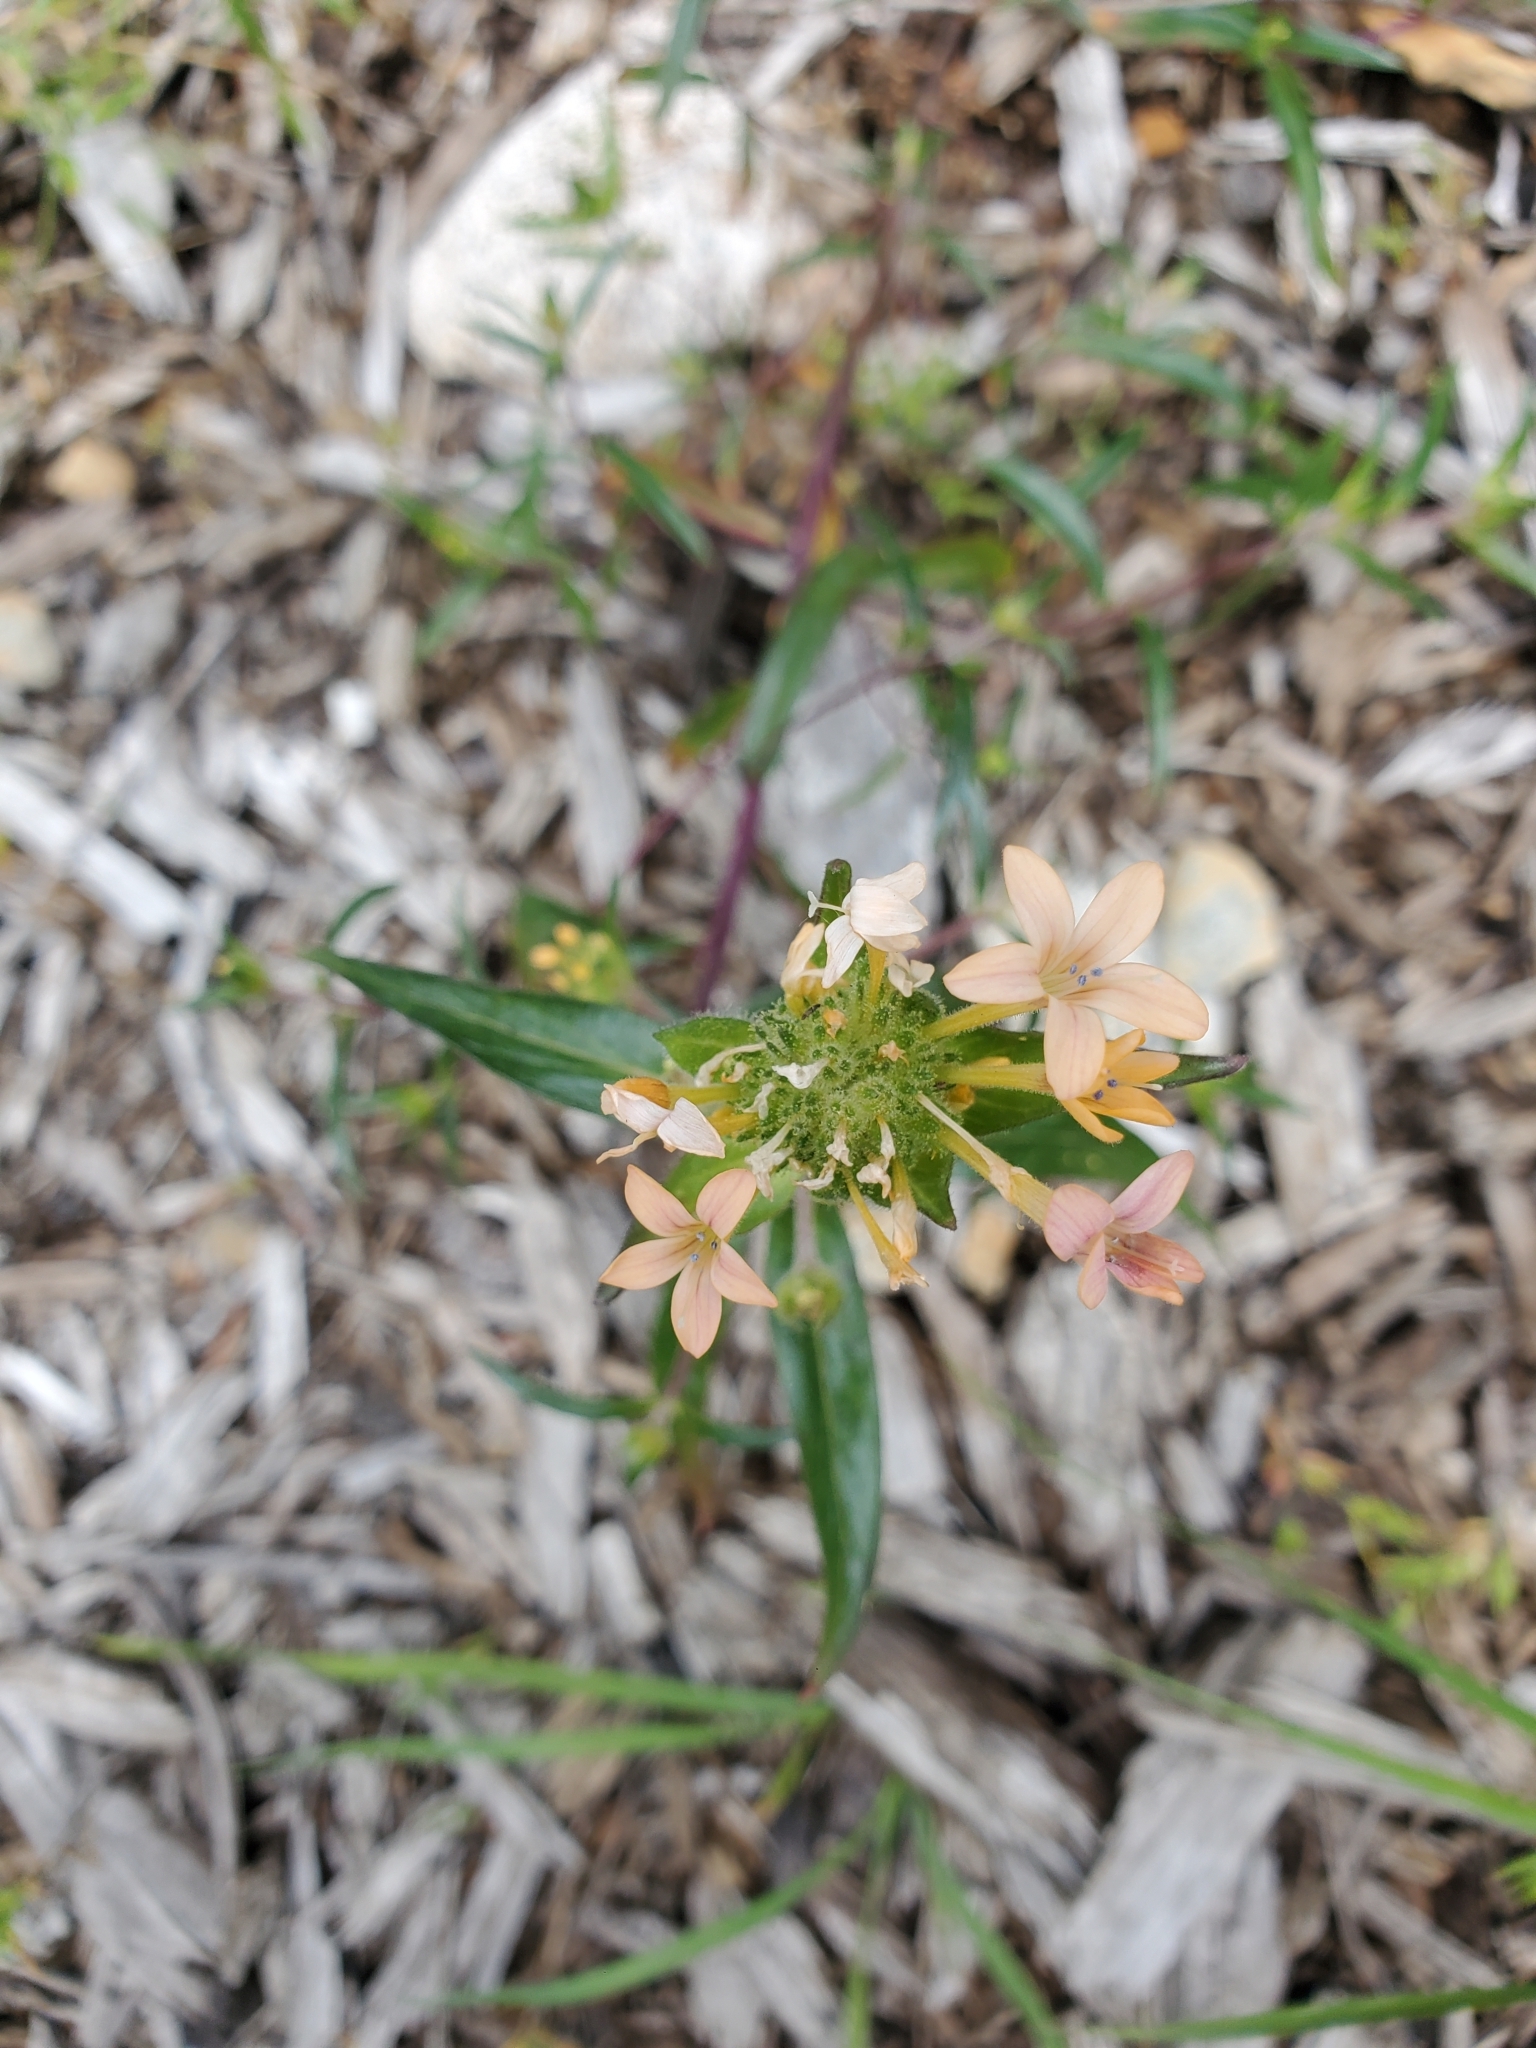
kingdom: Plantae
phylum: Tracheophyta
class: Magnoliopsida
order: Ericales
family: Polemoniaceae
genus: Collomia
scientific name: Collomia grandiflora
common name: California strawflower
